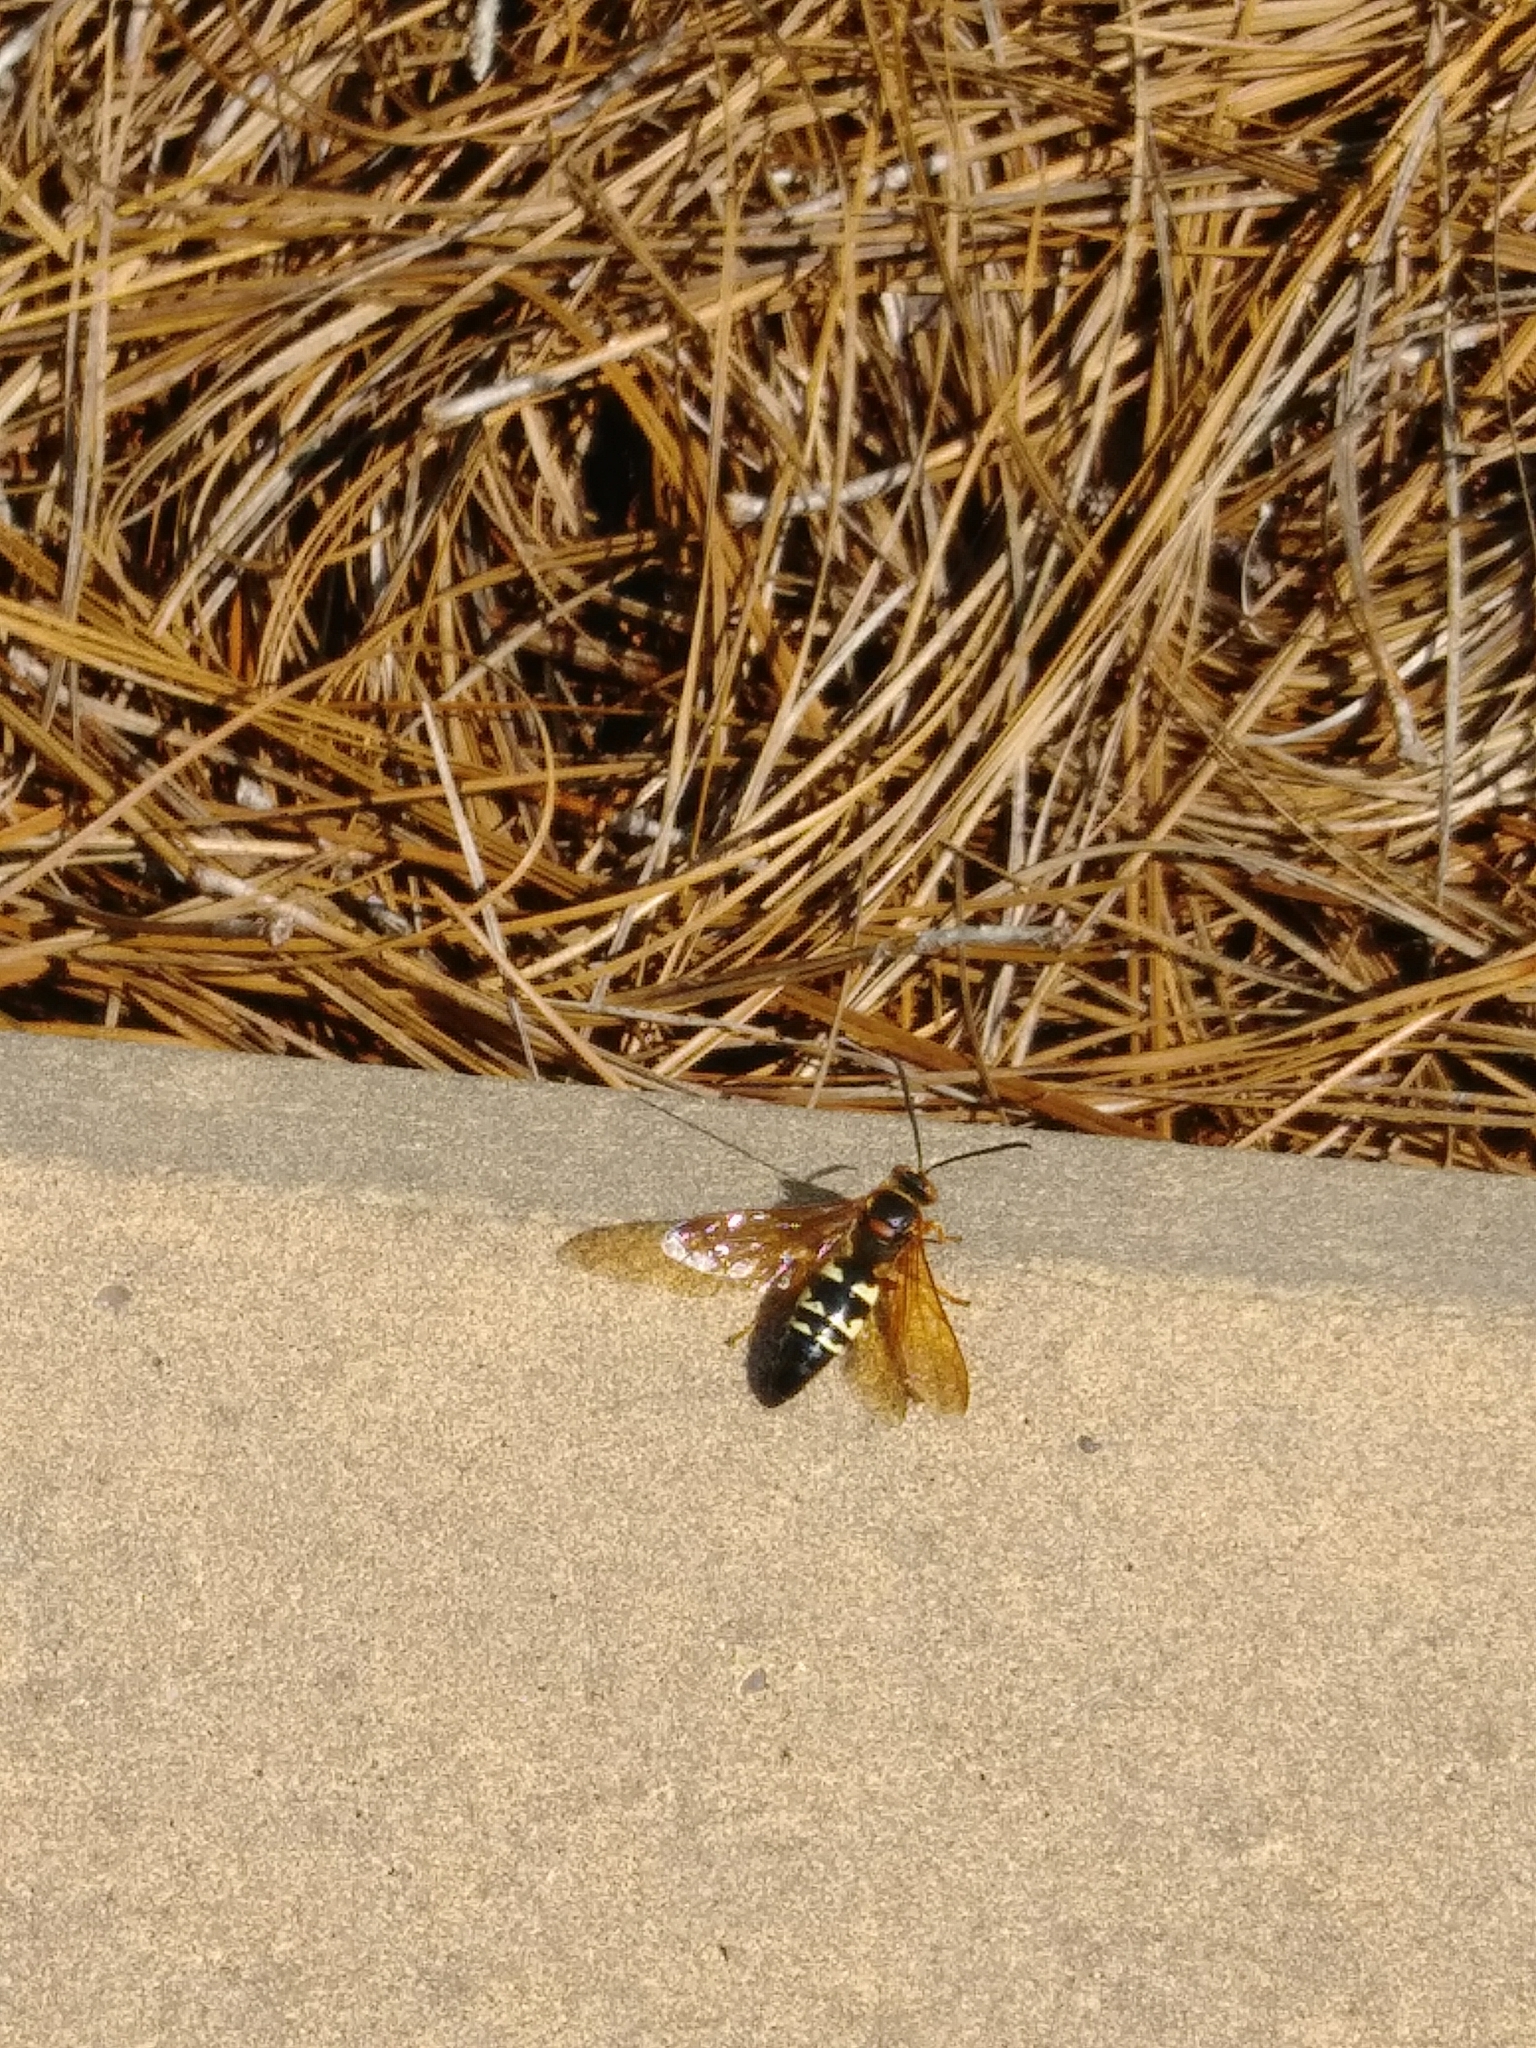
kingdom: Animalia
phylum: Arthropoda
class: Insecta
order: Hymenoptera
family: Crabronidae
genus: Sphecius
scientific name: Sphecius speciosus
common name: Cicada killer
